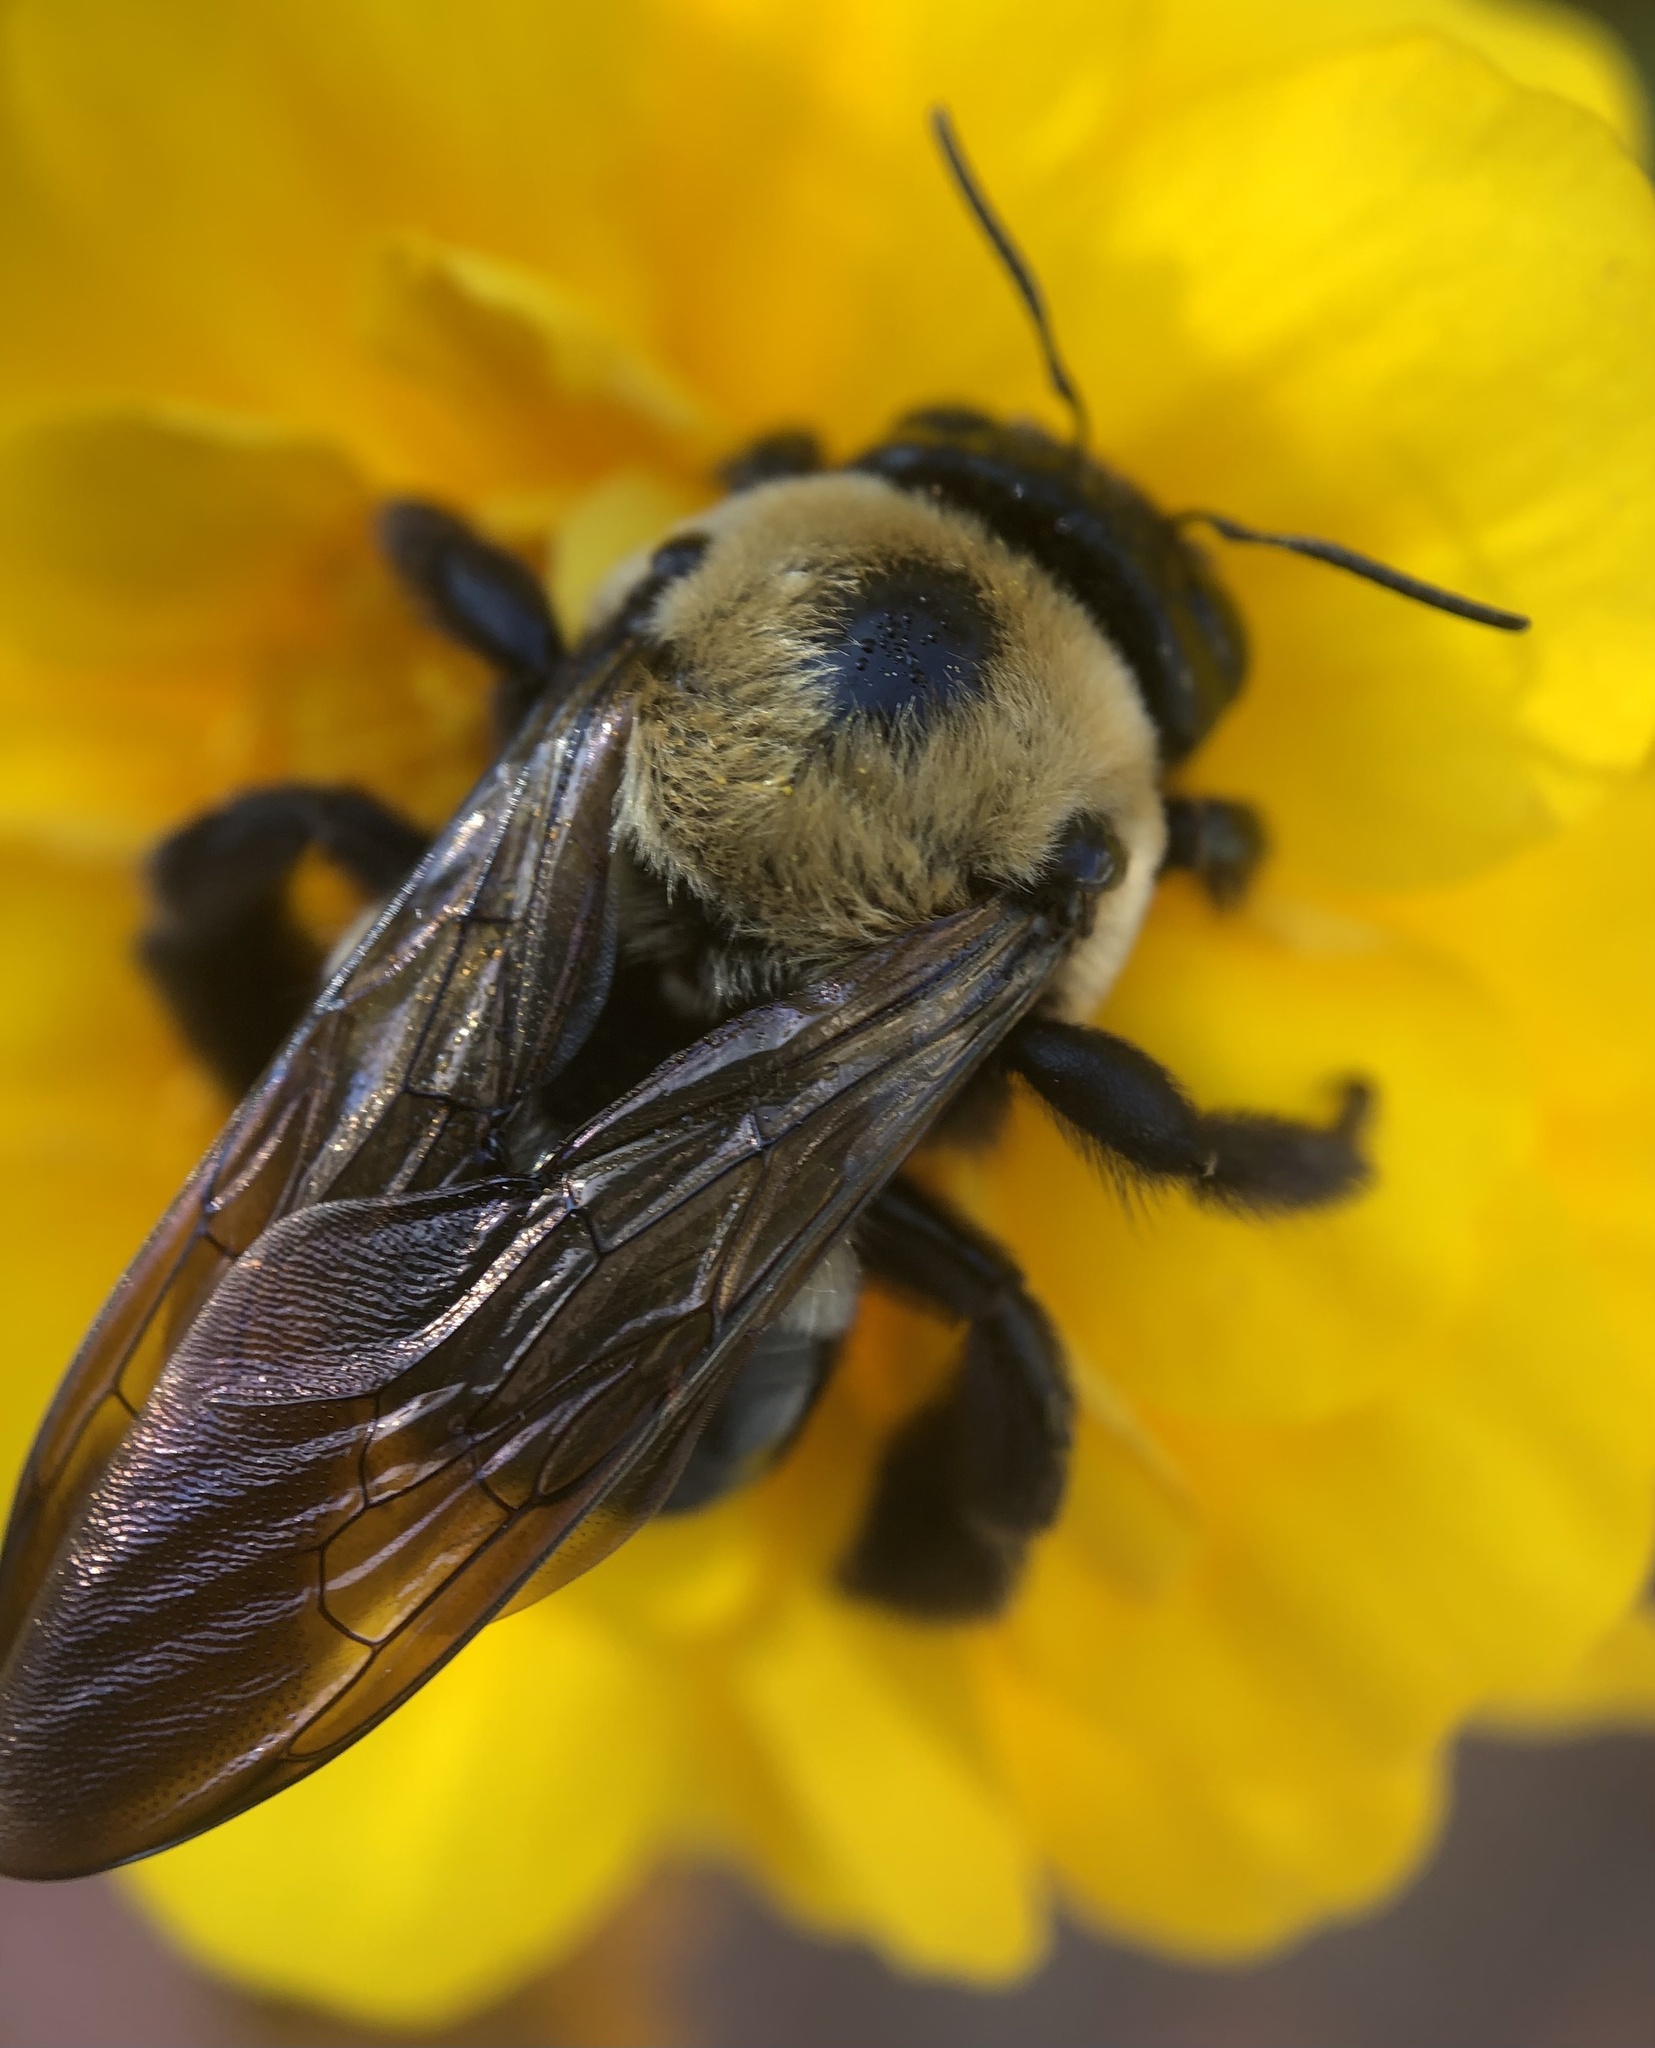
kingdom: Animalia
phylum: Arthropoda
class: Insecta
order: Hymenoptera
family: Apidae
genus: Xylocopa
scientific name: Xylocopa virginica
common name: Carpenter bee
